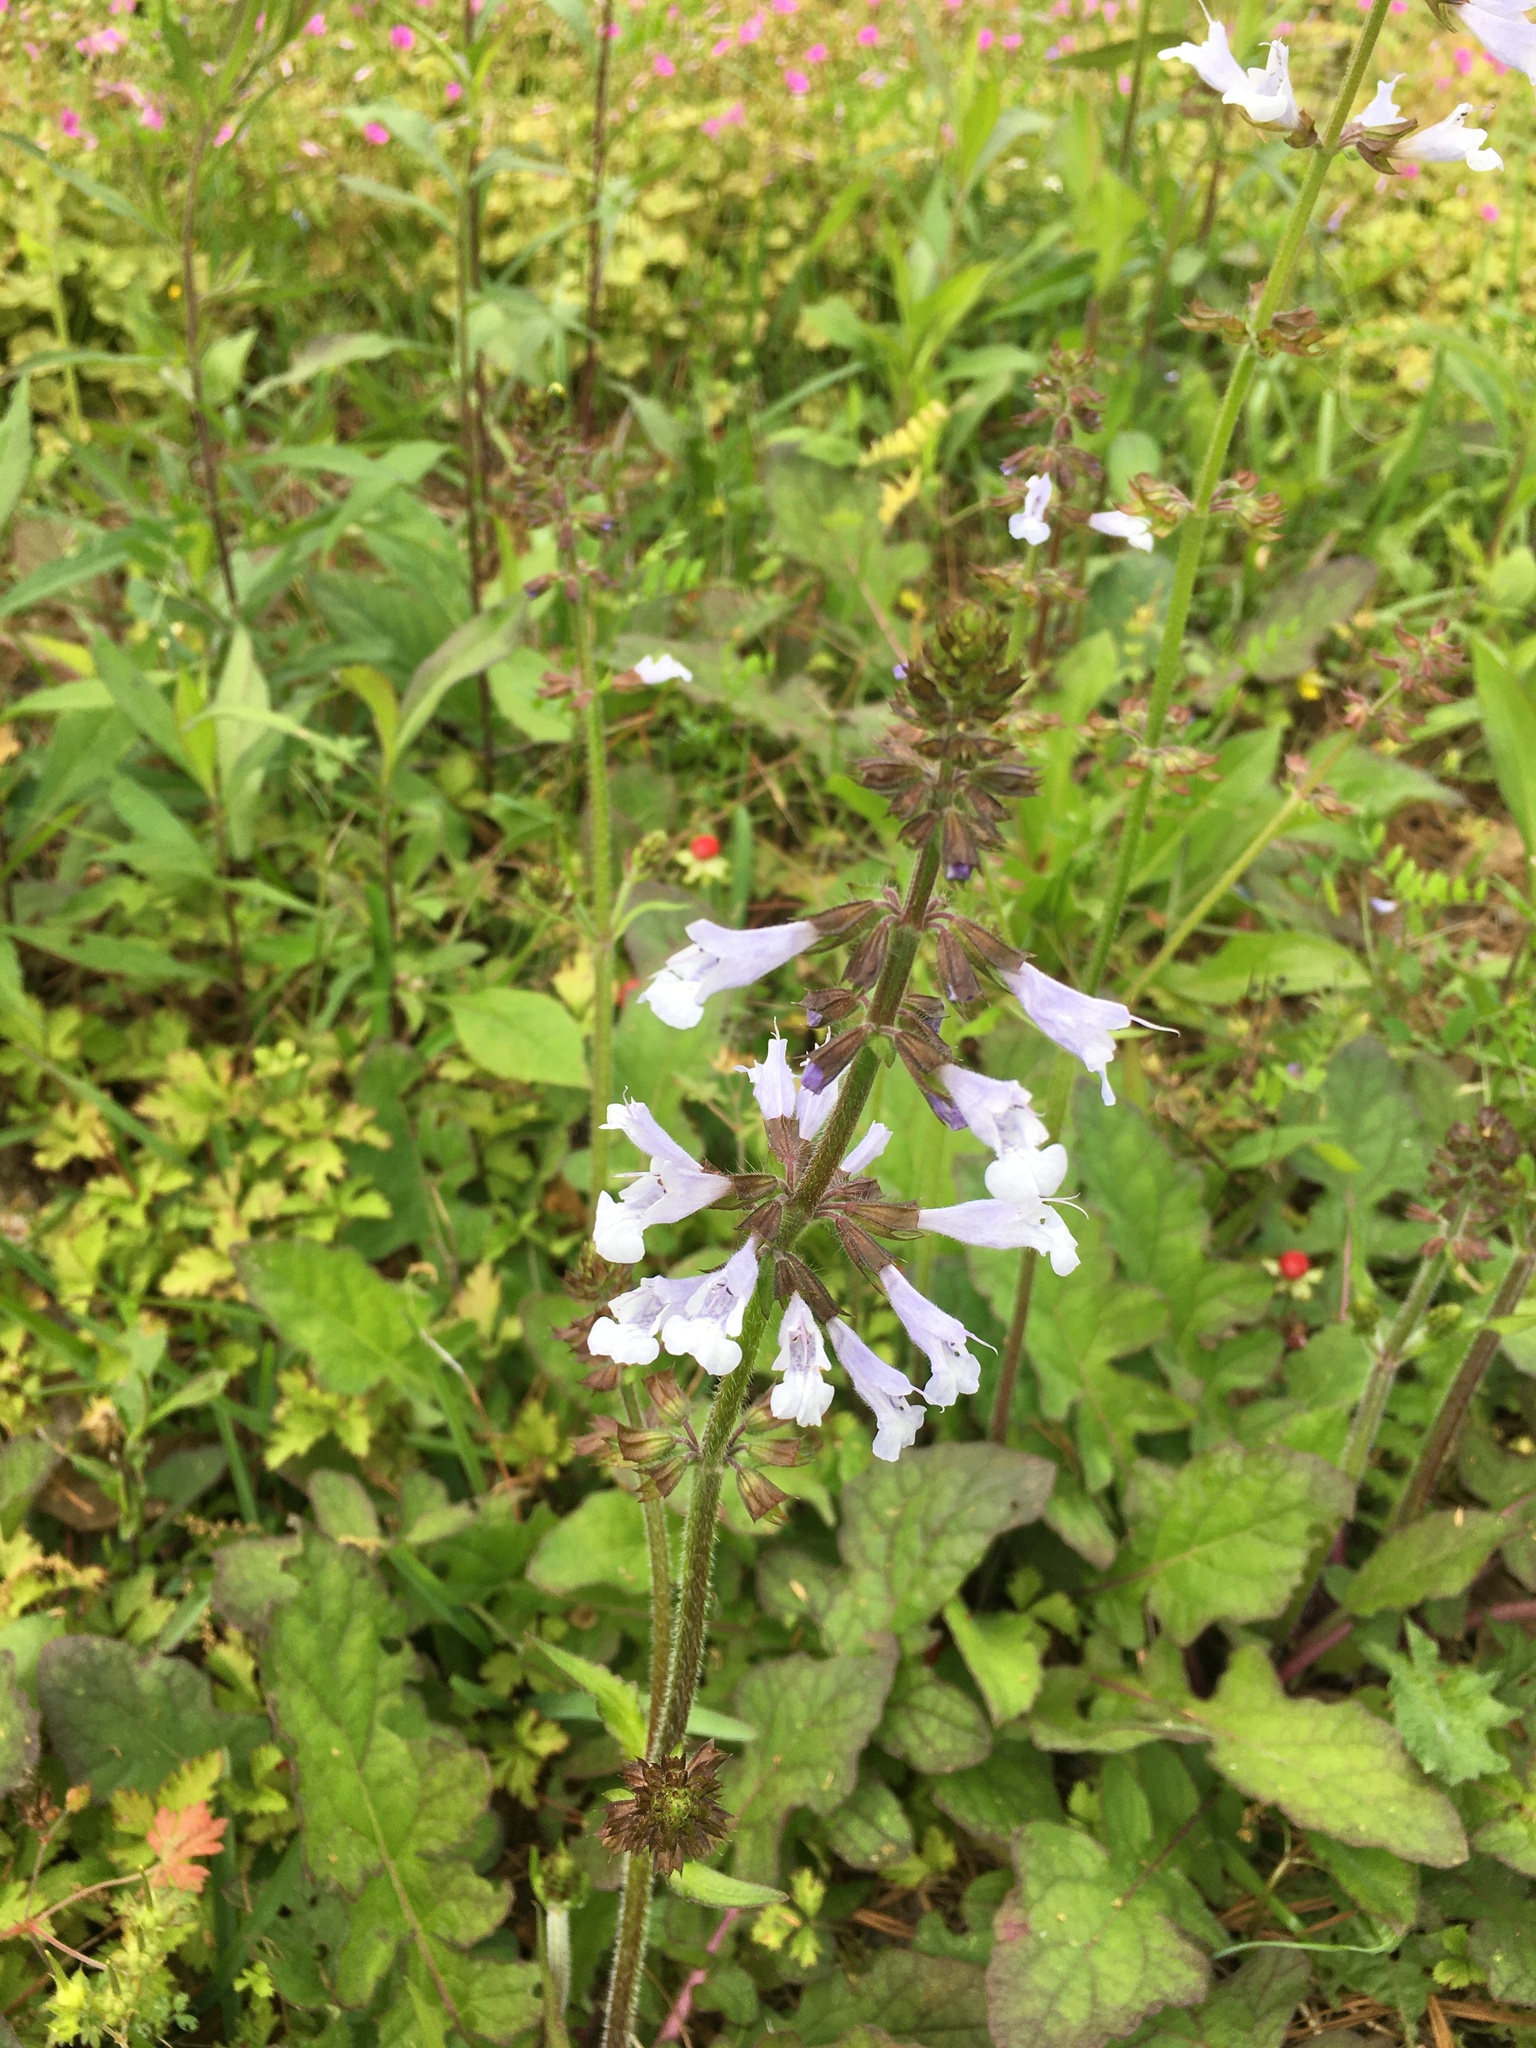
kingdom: Plantae
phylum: Tracheophyta
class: Magnoliopsida
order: Lamiales
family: Lamiaceae
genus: Salvia
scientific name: Salvia lyrata
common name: Cancerweed
